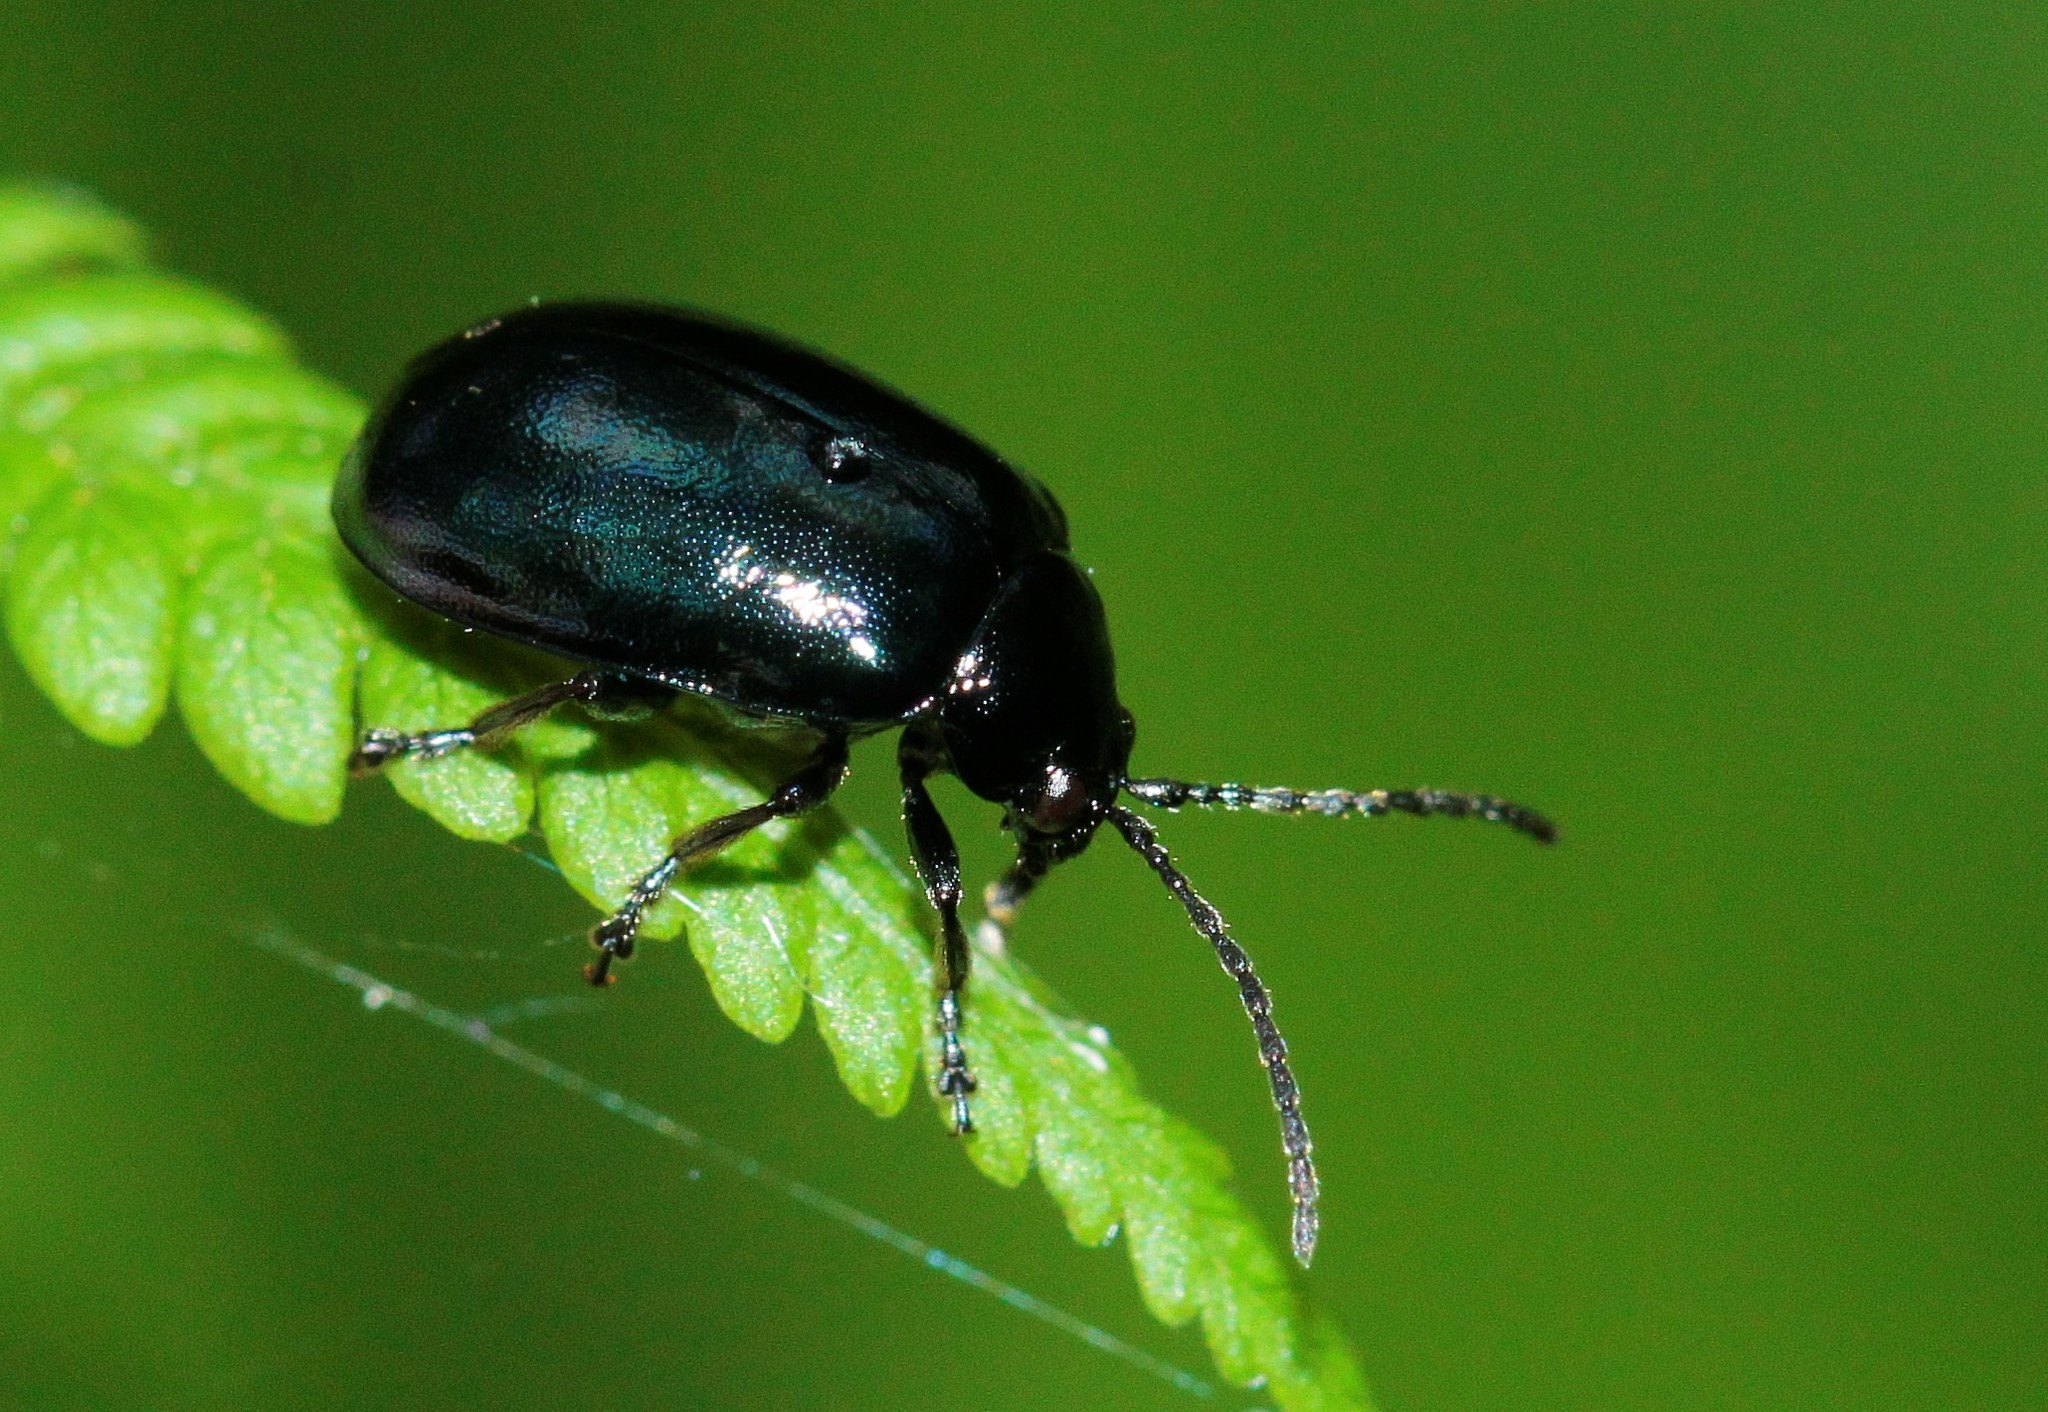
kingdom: Animalia
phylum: Arthropoda
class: Insecta
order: Coleoptera
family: Chrysomelidae
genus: Agelastica
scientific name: Agelastica alni
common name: Alder leaf beetle
